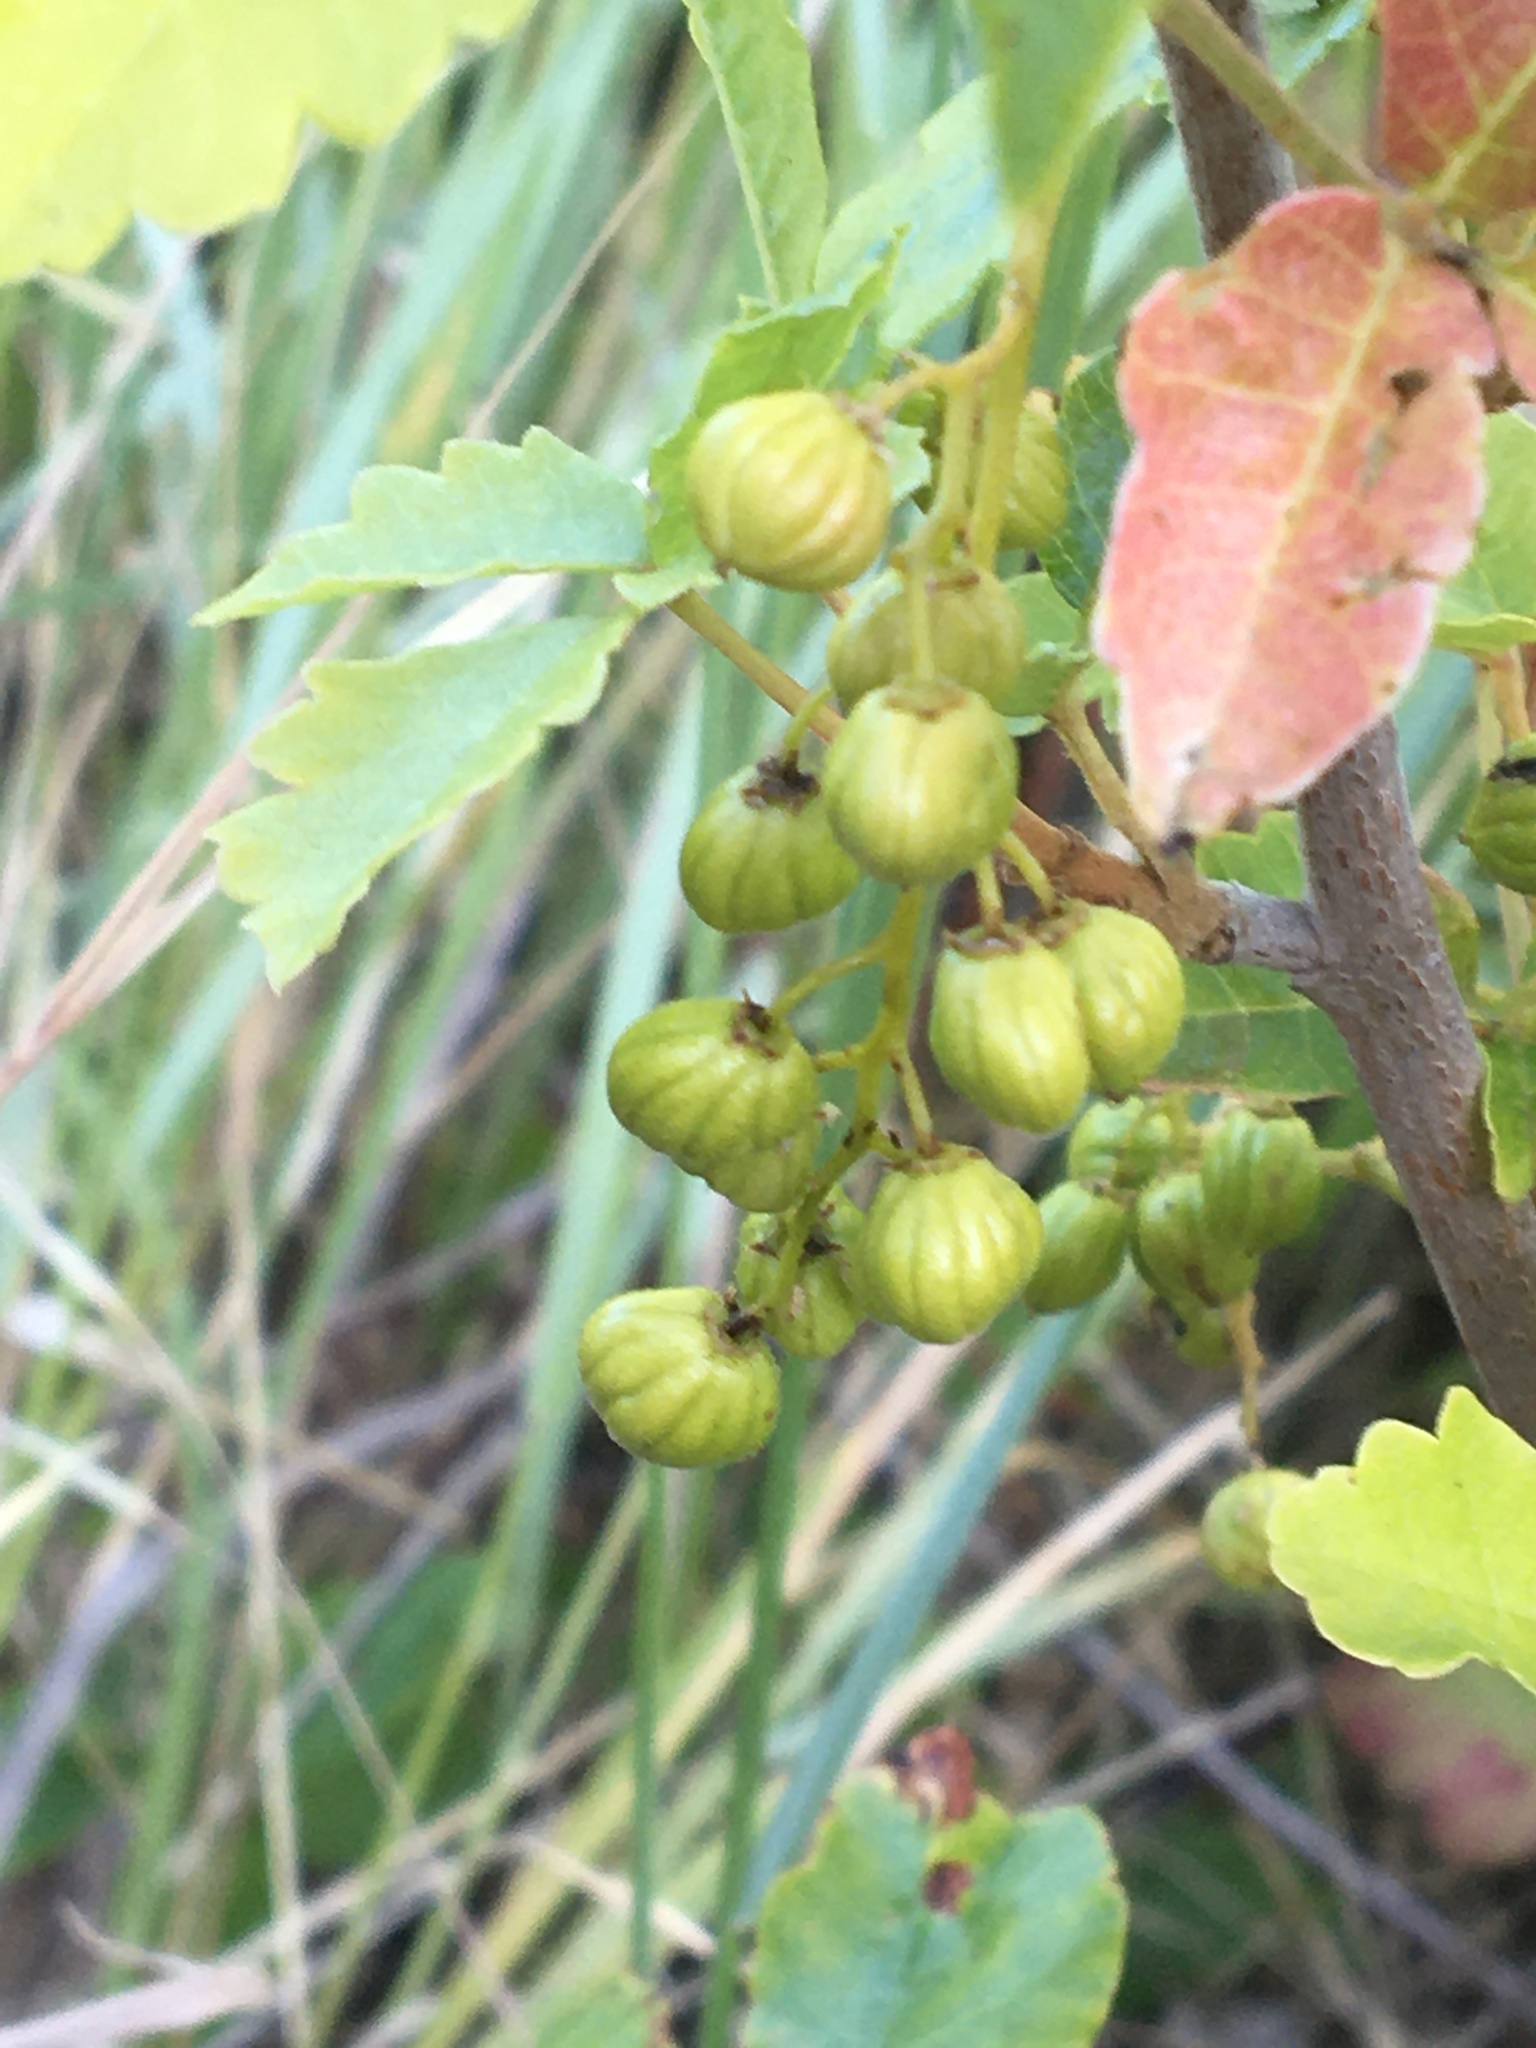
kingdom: Plantae
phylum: Tracheophyta
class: Magnoliopsida
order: Sapindales
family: Anacardiaceae
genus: Toxicodendron
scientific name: Toxicodendron diversilobum
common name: Pacific poison-oak
